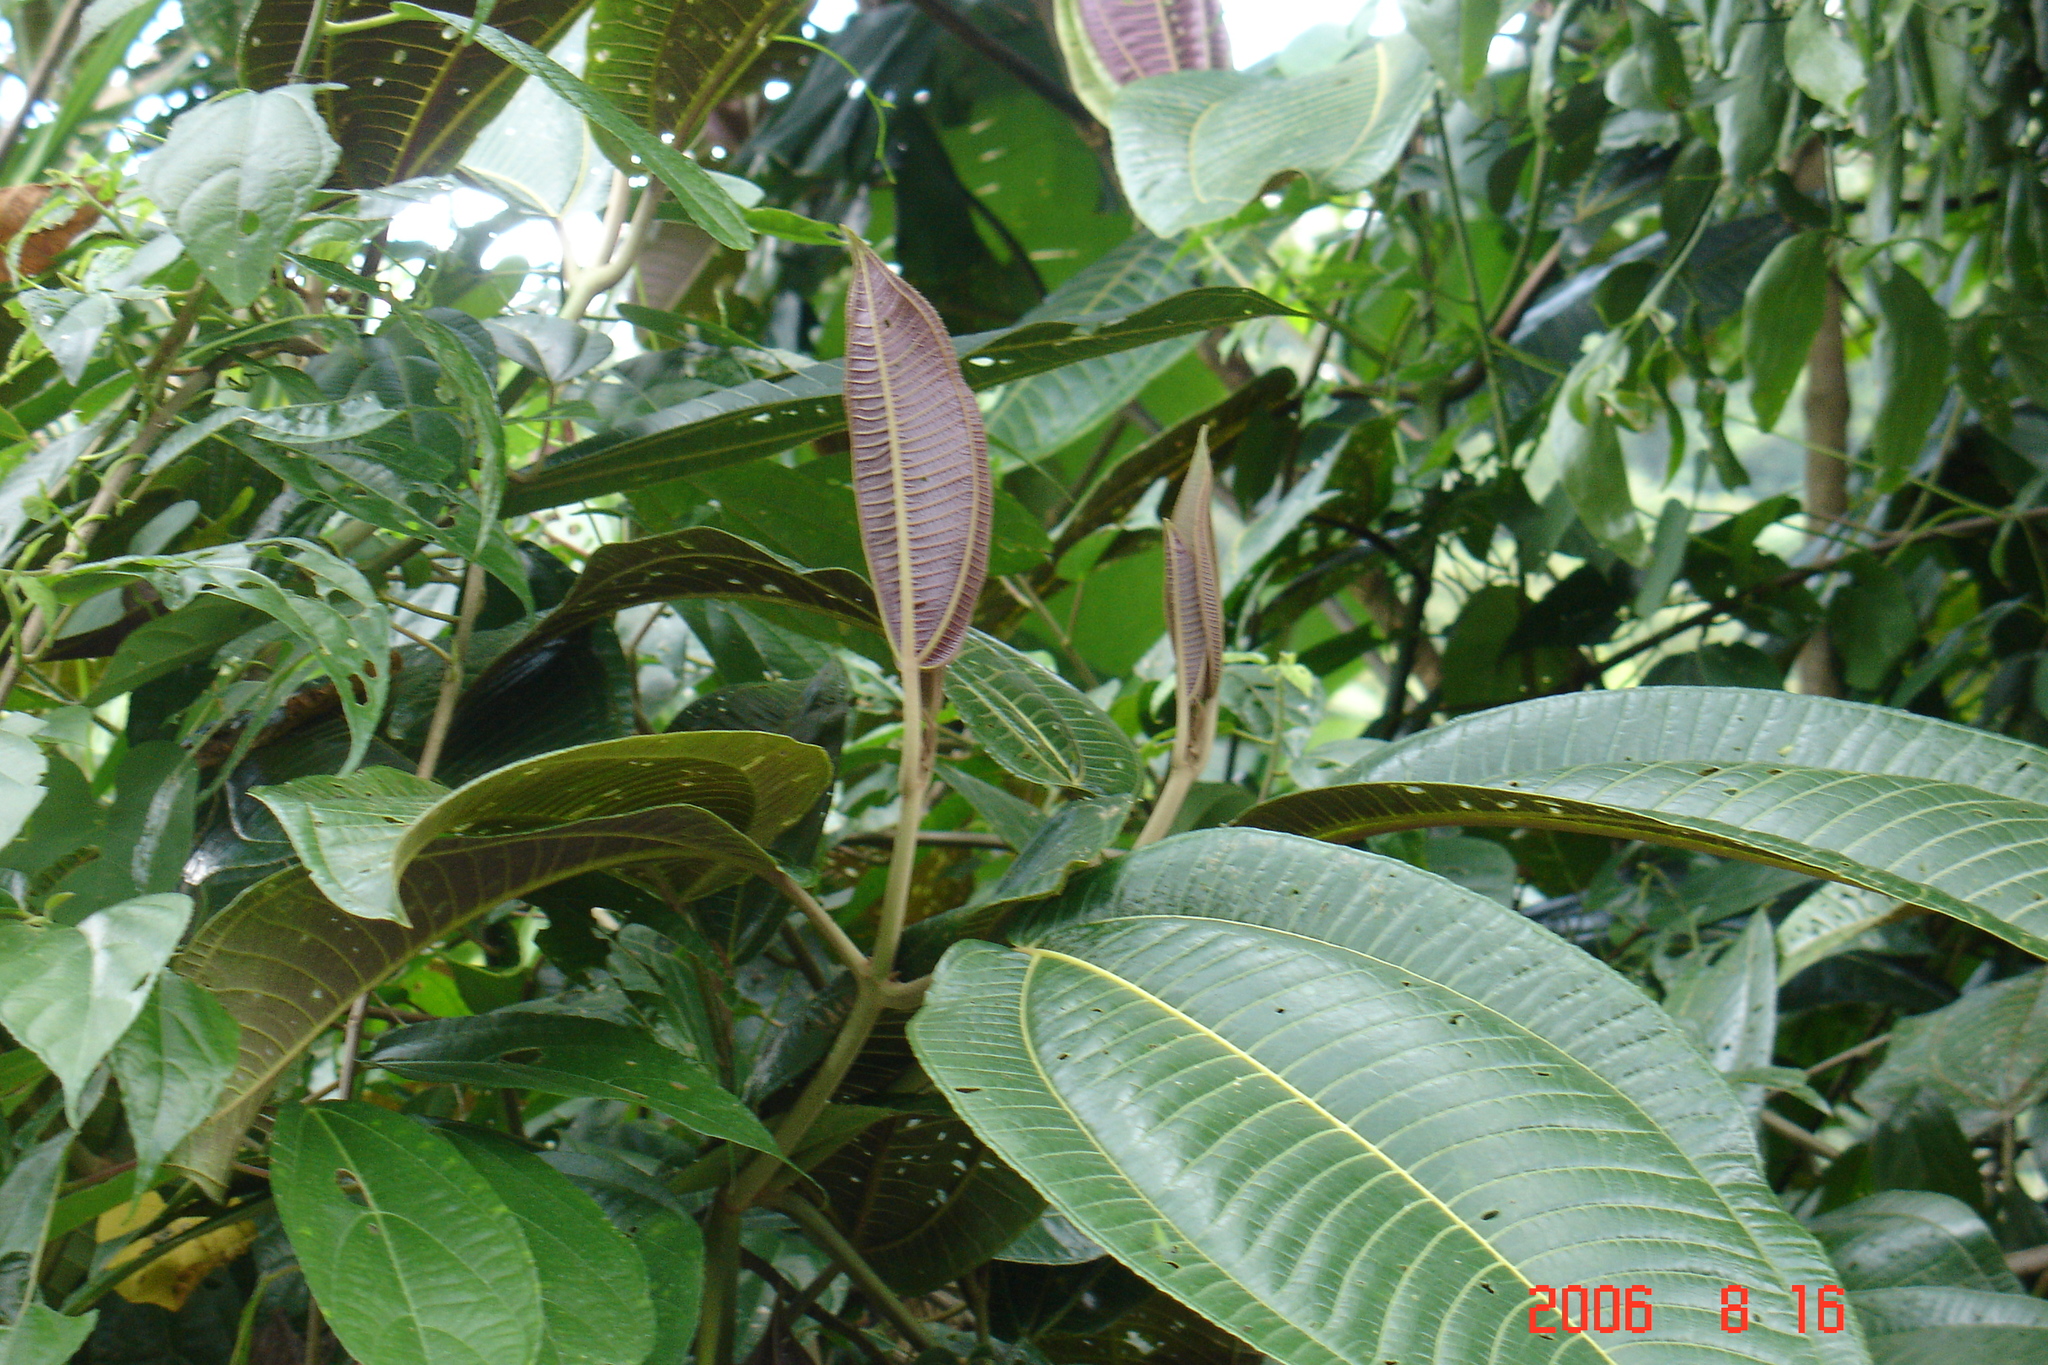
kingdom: Plantae
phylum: Tracheophyta
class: Magnoliopsida
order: Myrtales
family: Melastomataceae
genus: Miconia
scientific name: Miconia calvescens
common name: Purple plague
